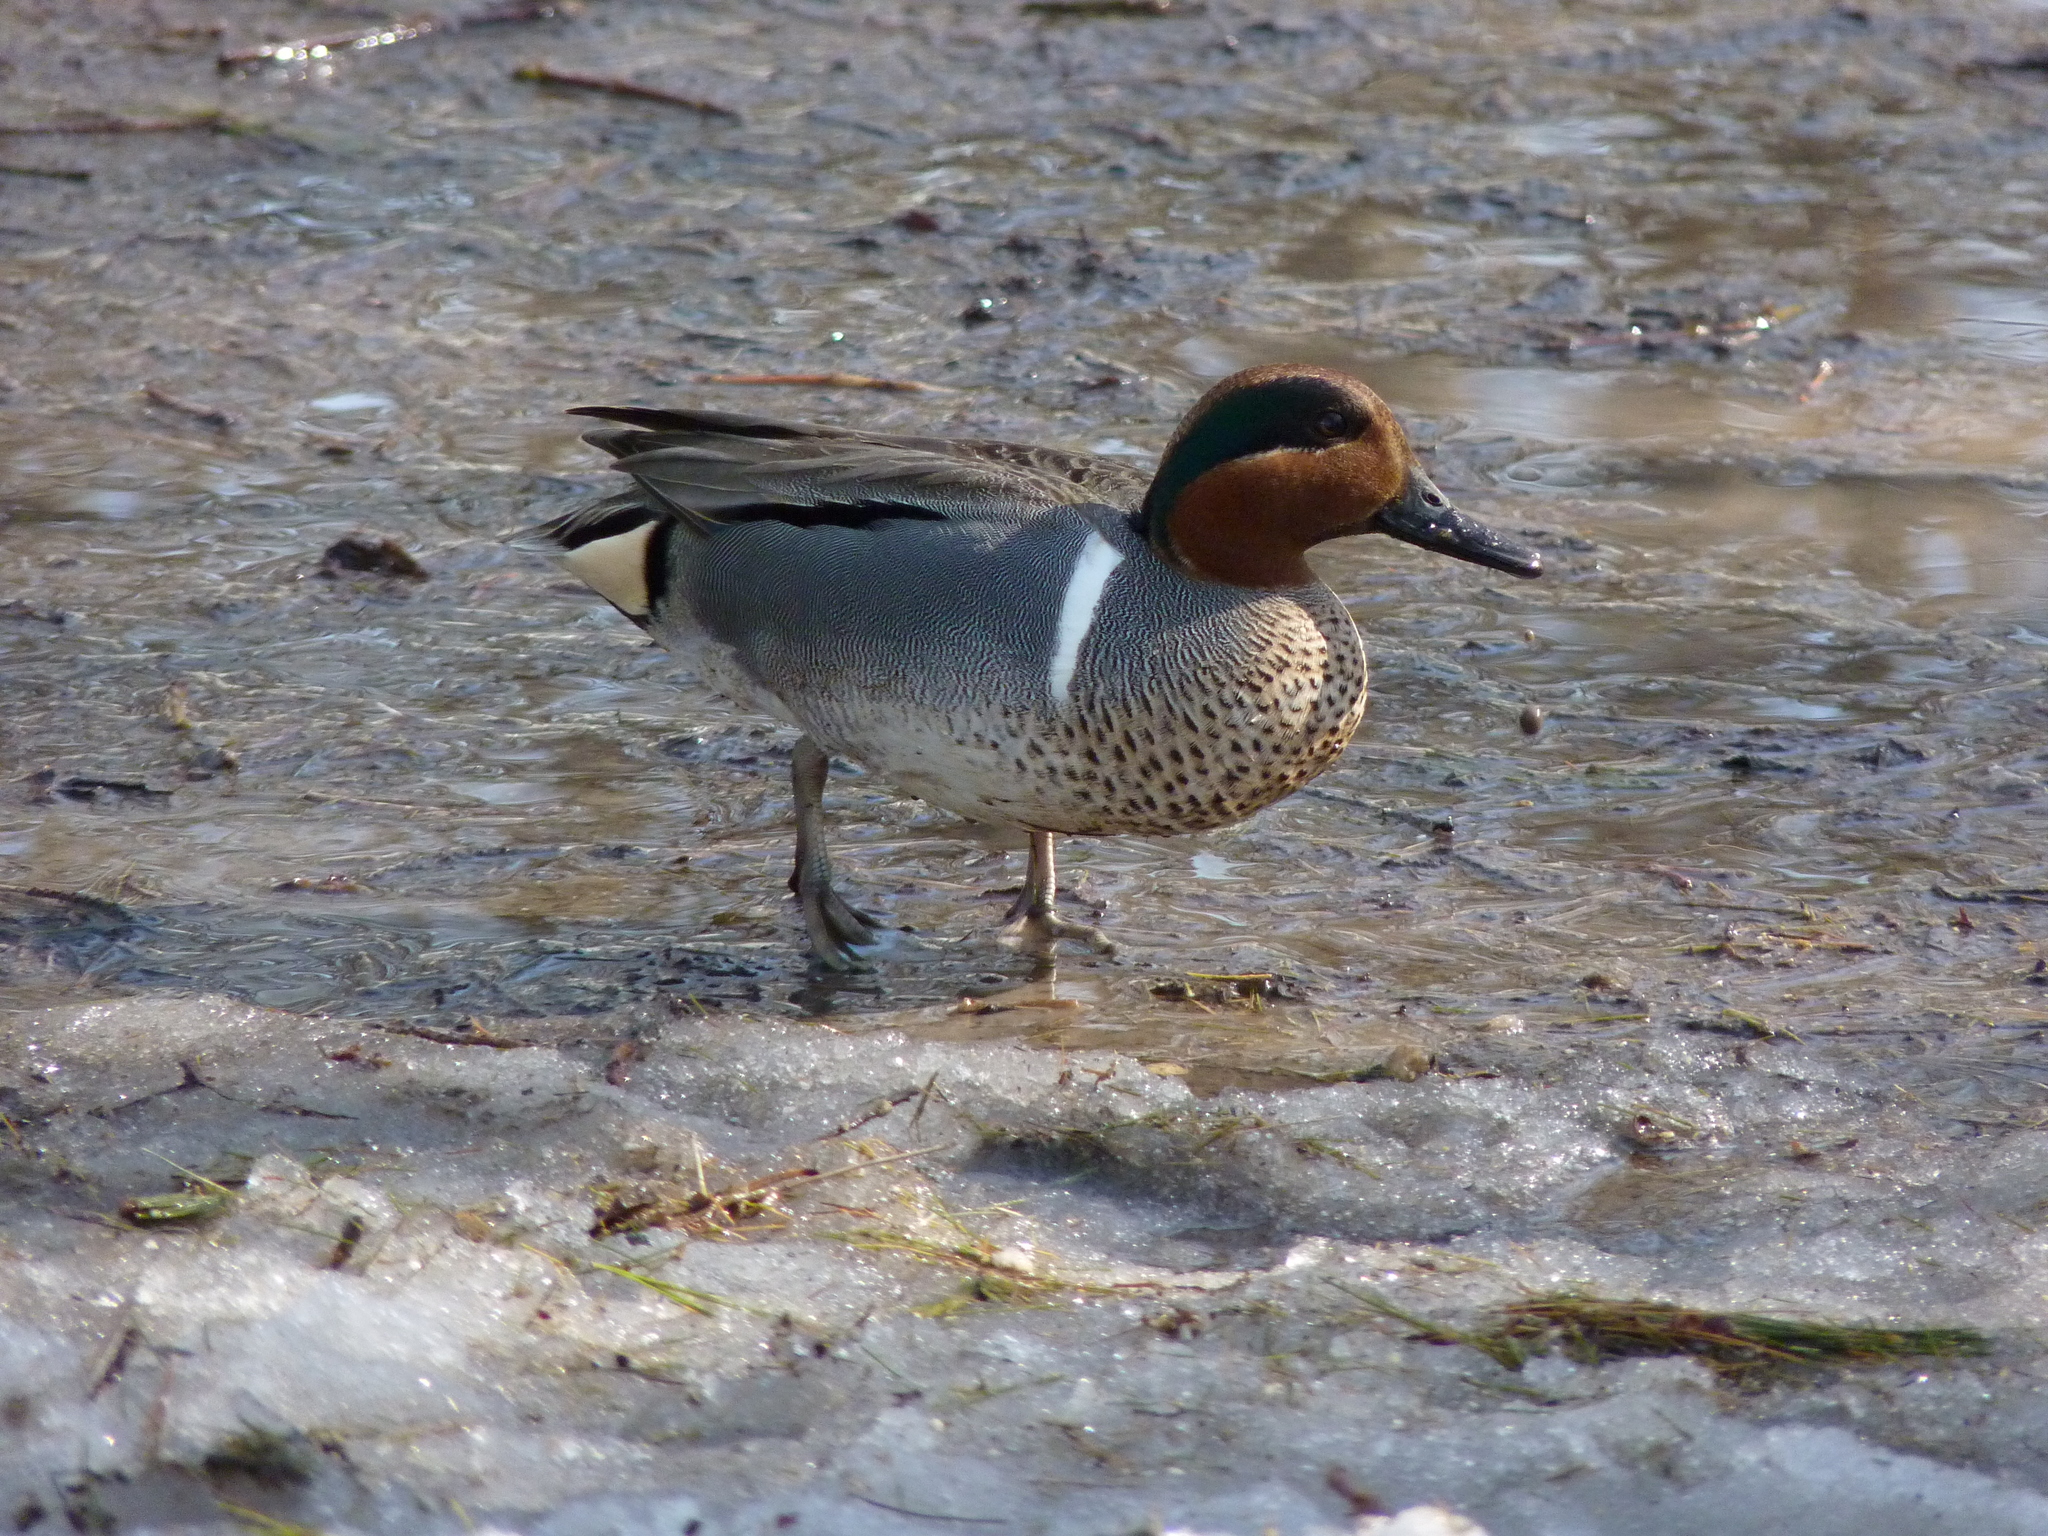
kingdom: Animalia
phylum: Chordata
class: Aves
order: Anseriformes
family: Anatidae
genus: Anas
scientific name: Anas crecca
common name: Eurasian teal
